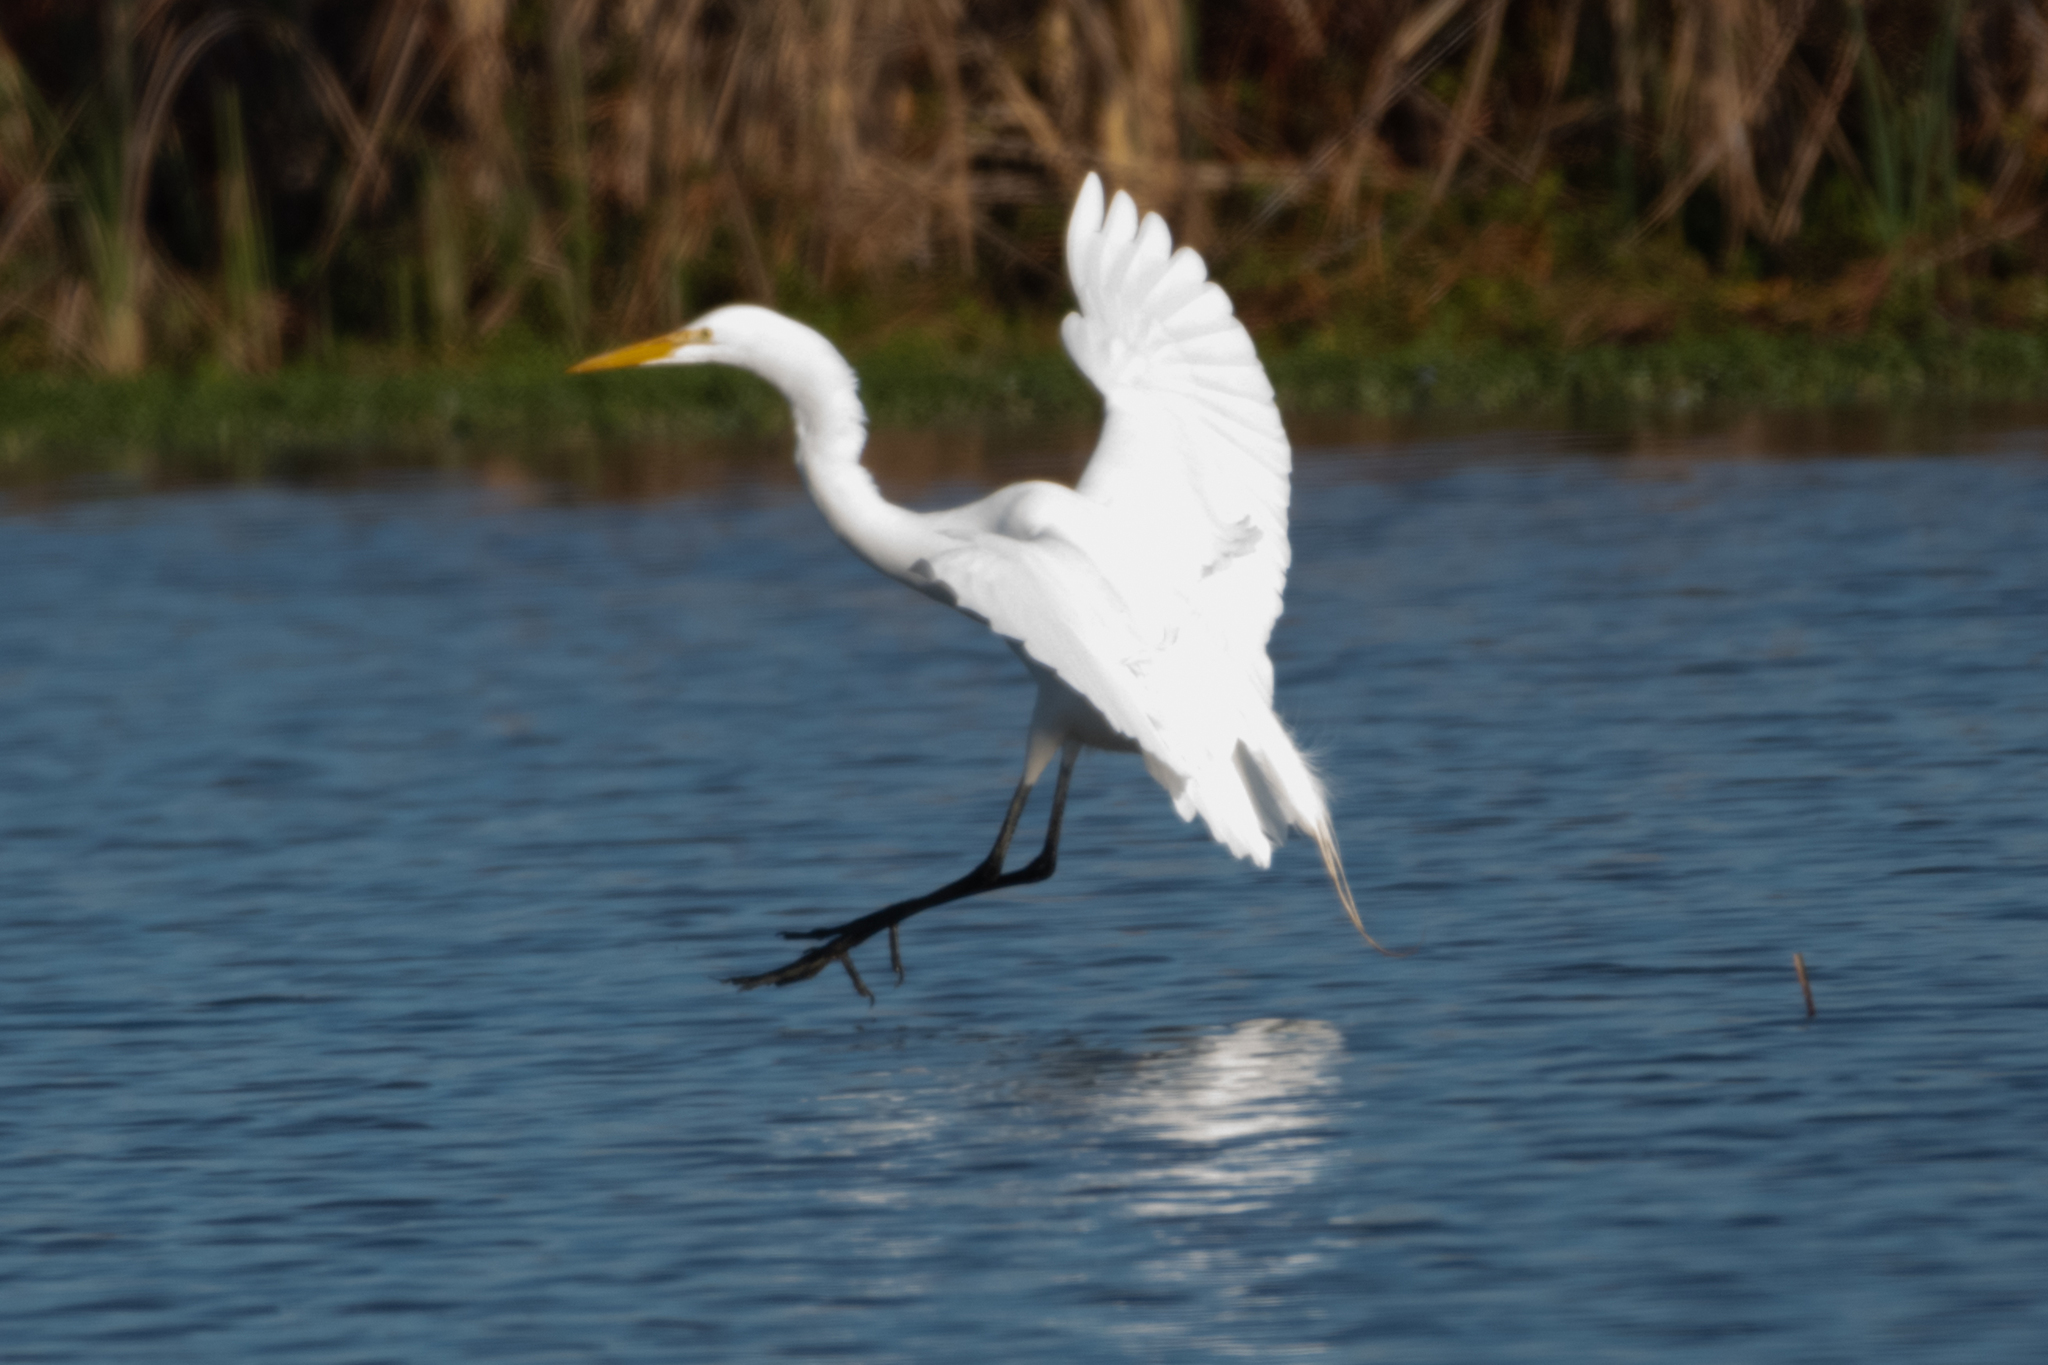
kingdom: Animalia
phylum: Chordata
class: Aves
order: Pelecaniformes
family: Ardeidae
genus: Ardea
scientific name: Ardea alba
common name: Great egret
